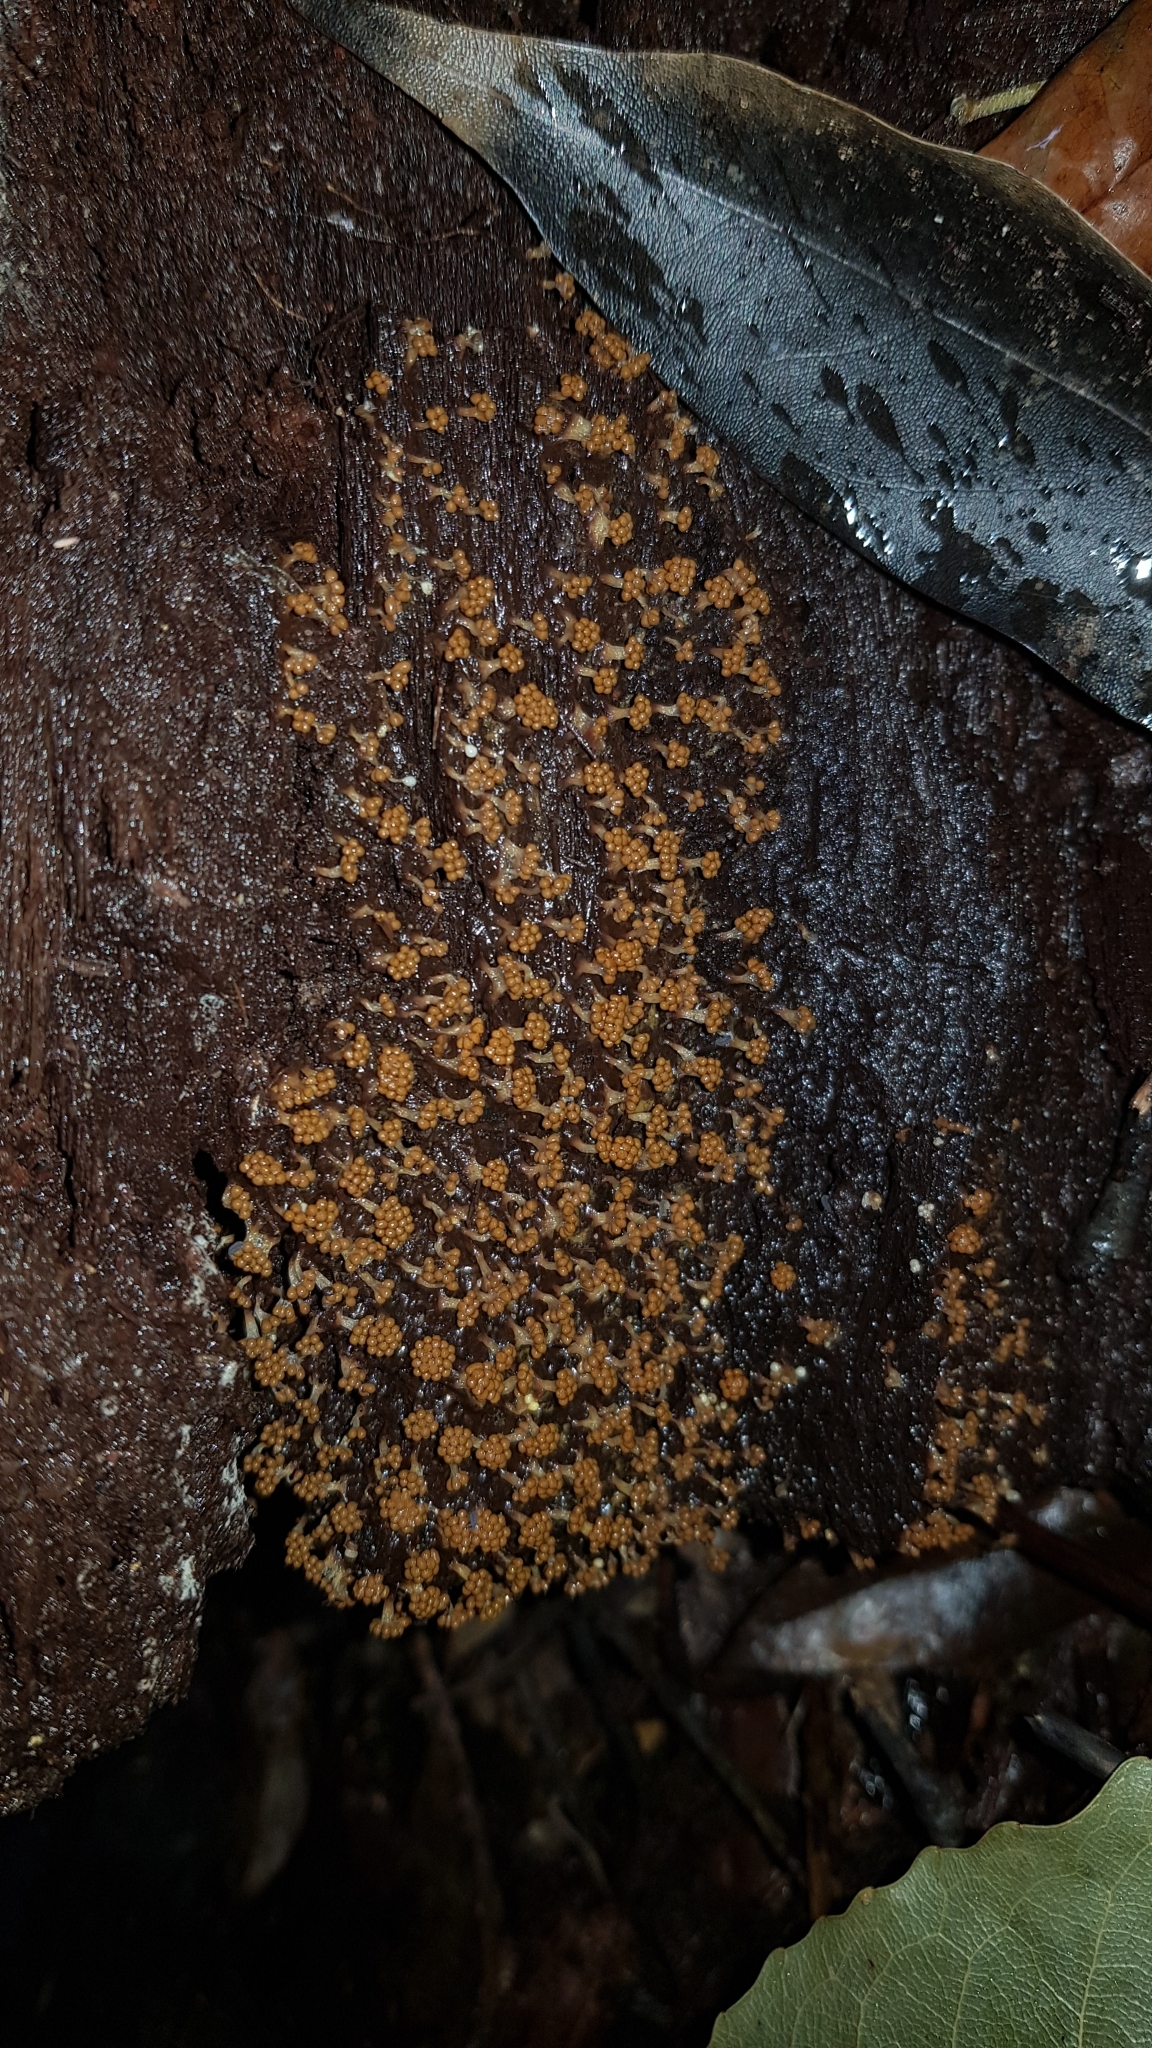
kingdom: Protozoa
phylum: Mycetozoa
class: Myxomycetes
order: Trichiales
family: Trichiaceae
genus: Oligonema
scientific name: Oligonema verrucosum
